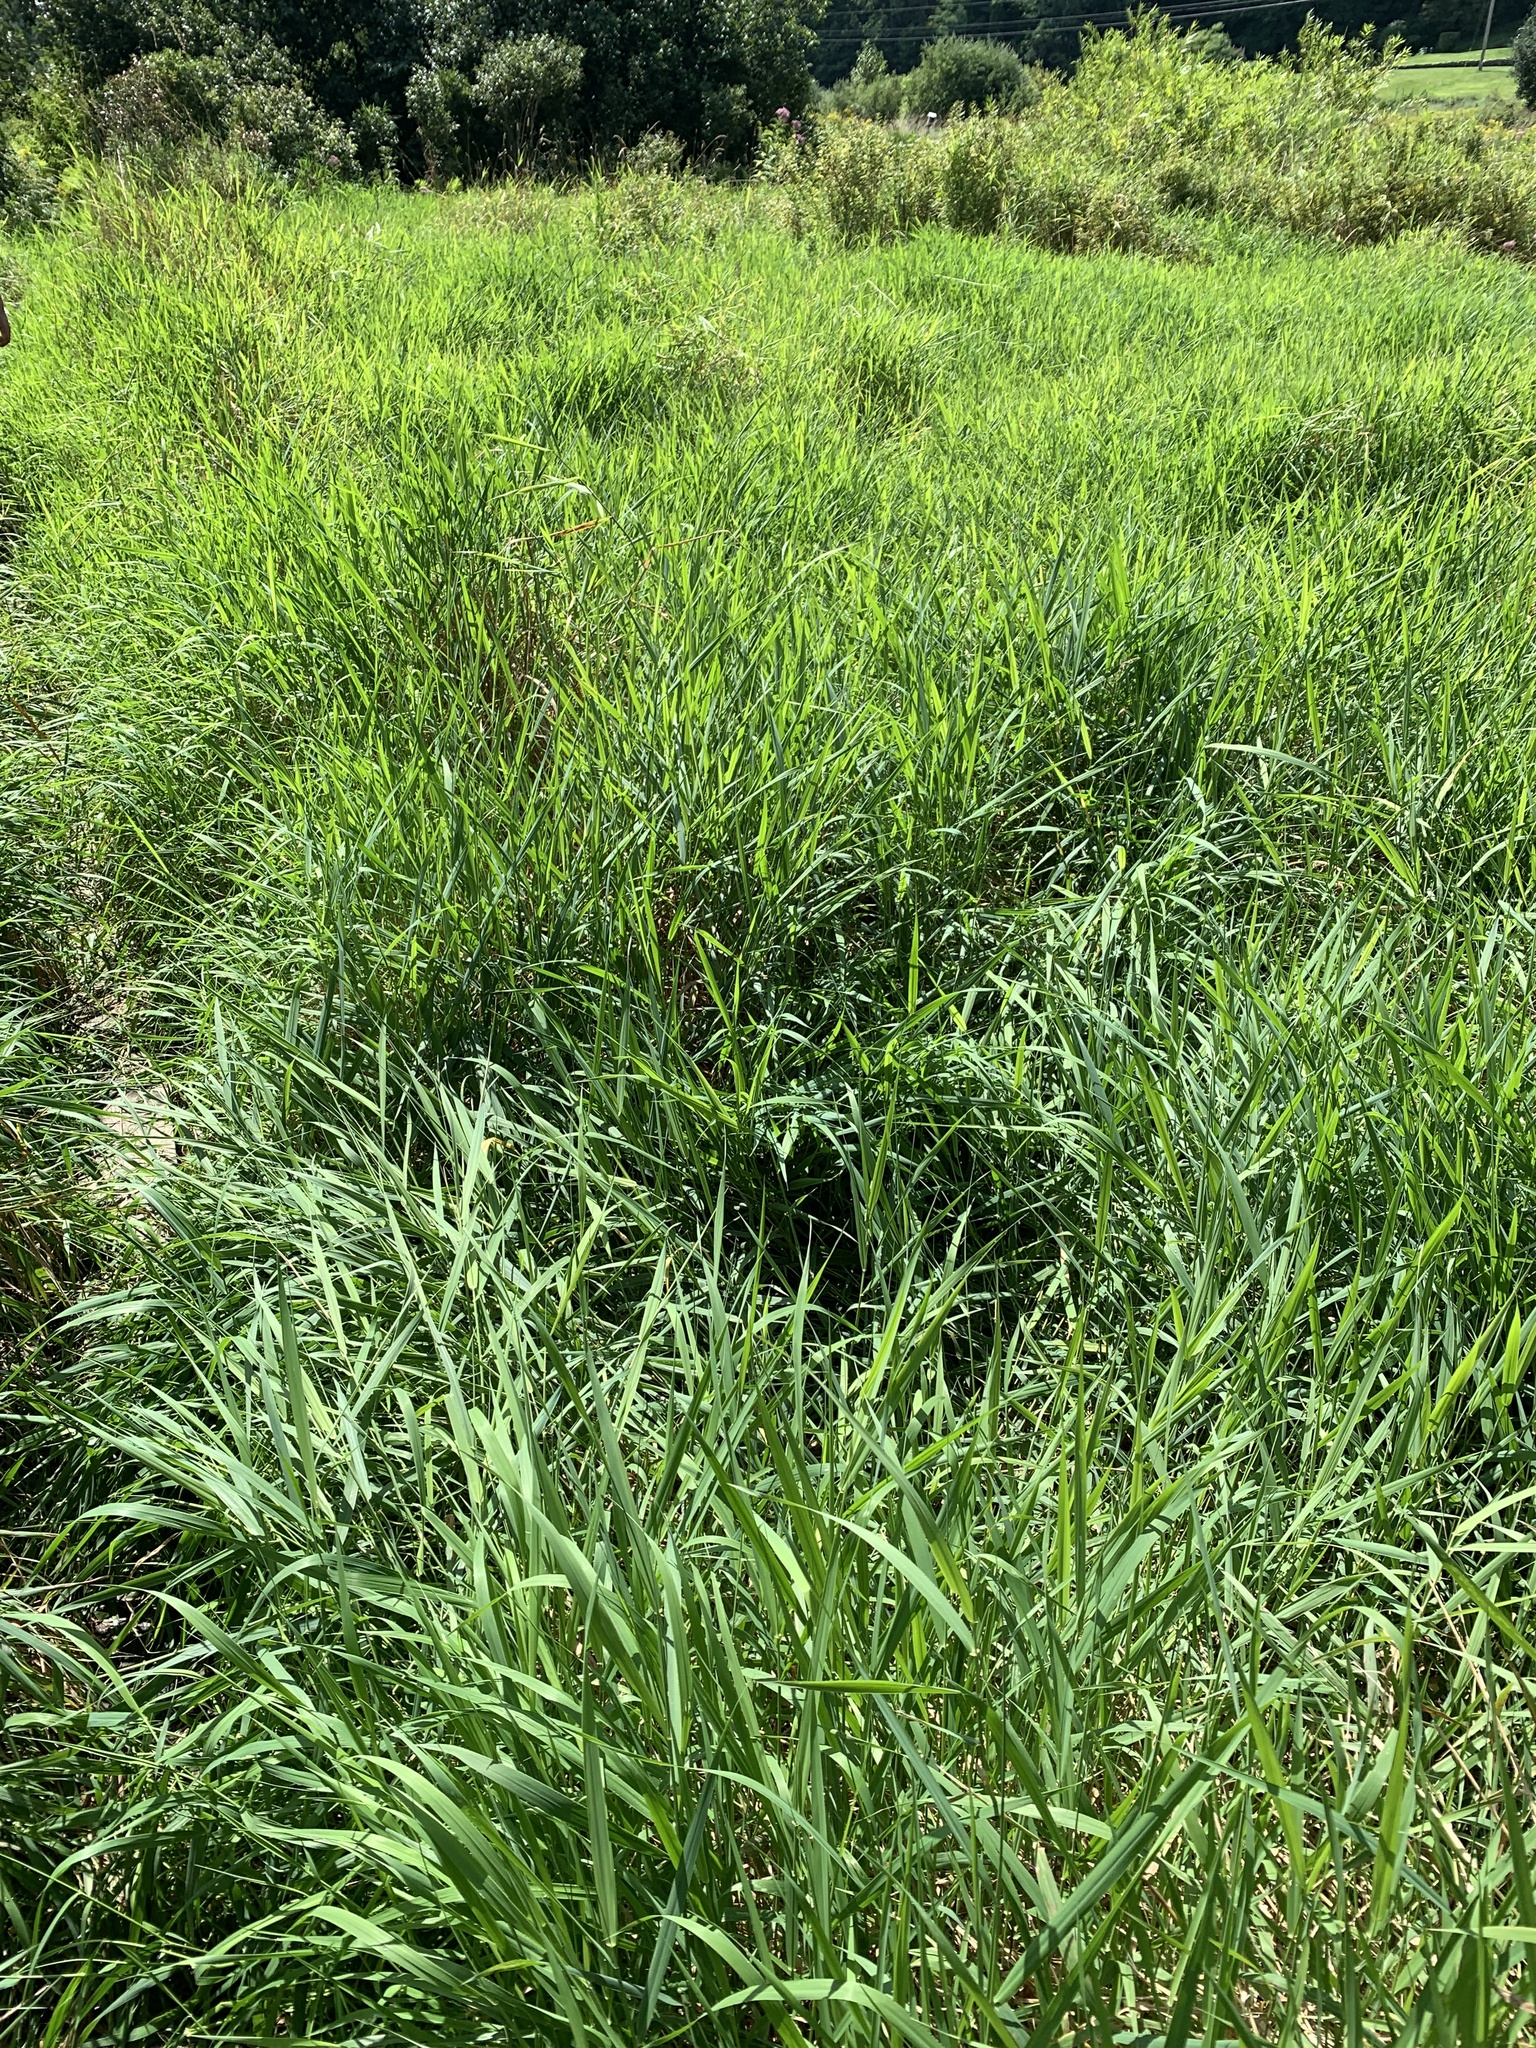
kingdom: Plantae
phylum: Tracheophyta
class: Liliopsida
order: Poales
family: Poaceae
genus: Phalaris
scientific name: Phalaris arundinacea
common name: Reed canary-grass
